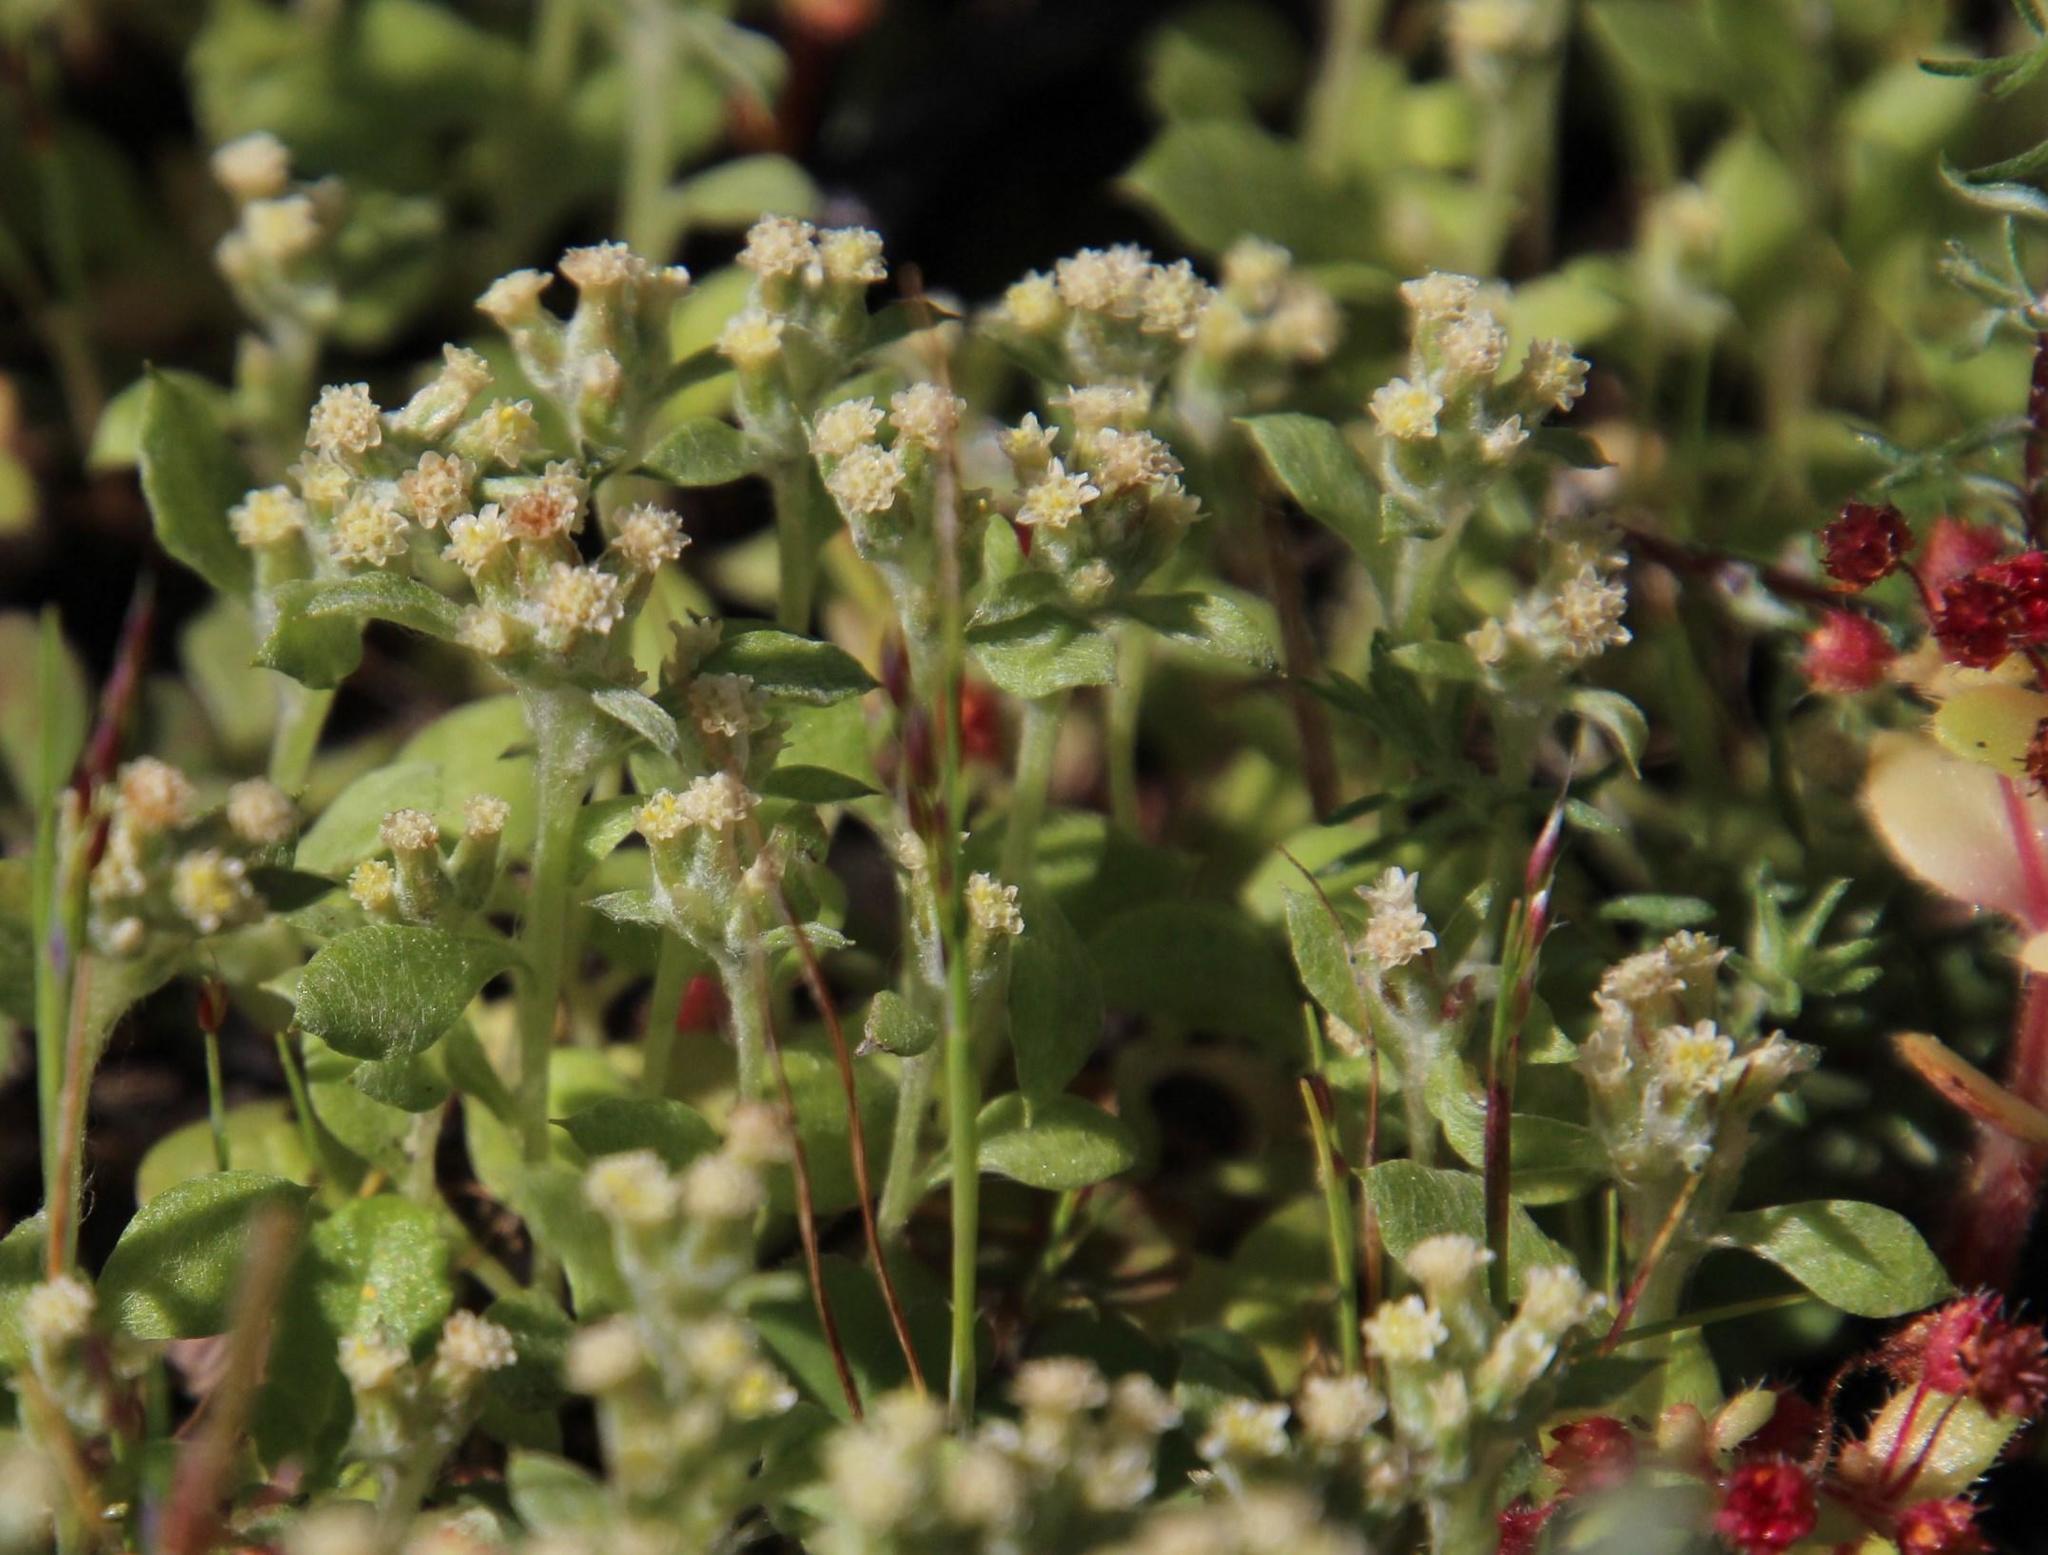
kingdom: Plantae
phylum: Tracheophyta
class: Magnoliopsida
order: Asterales
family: Asteraceae
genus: Troglophyton
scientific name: Troglophyton parvulum
